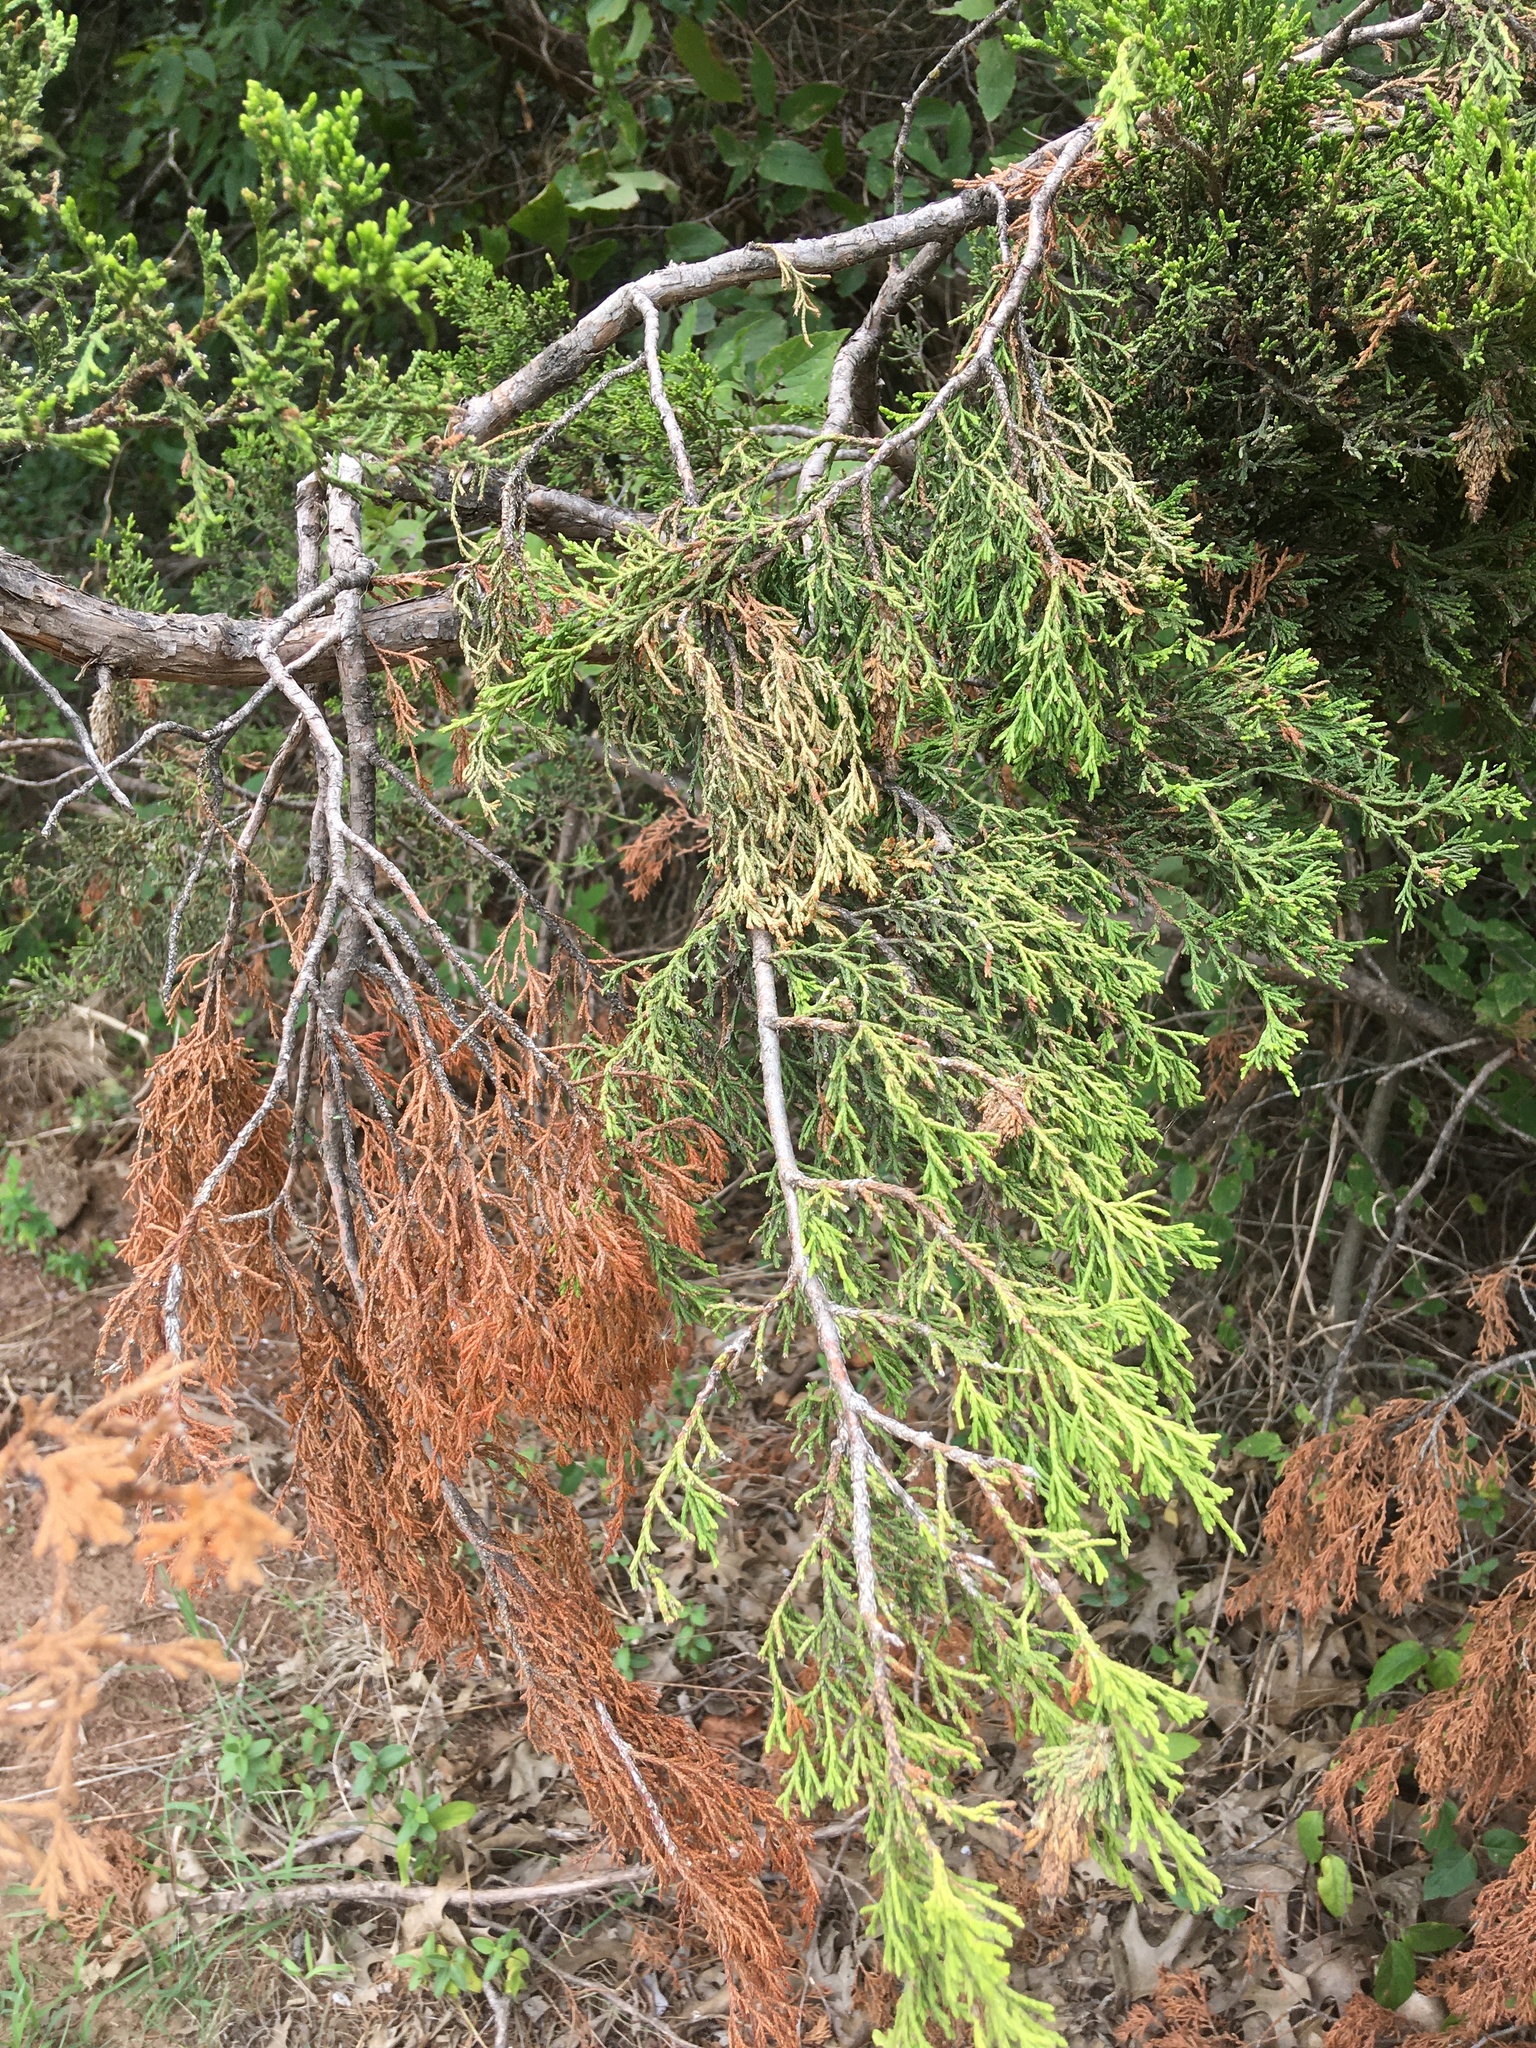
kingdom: Plantae
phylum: Tracheophyta
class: Pinopsida
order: Pinales
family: Cupressaceae
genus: Juniperus
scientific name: Juniperus virginiana
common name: Red juniper
